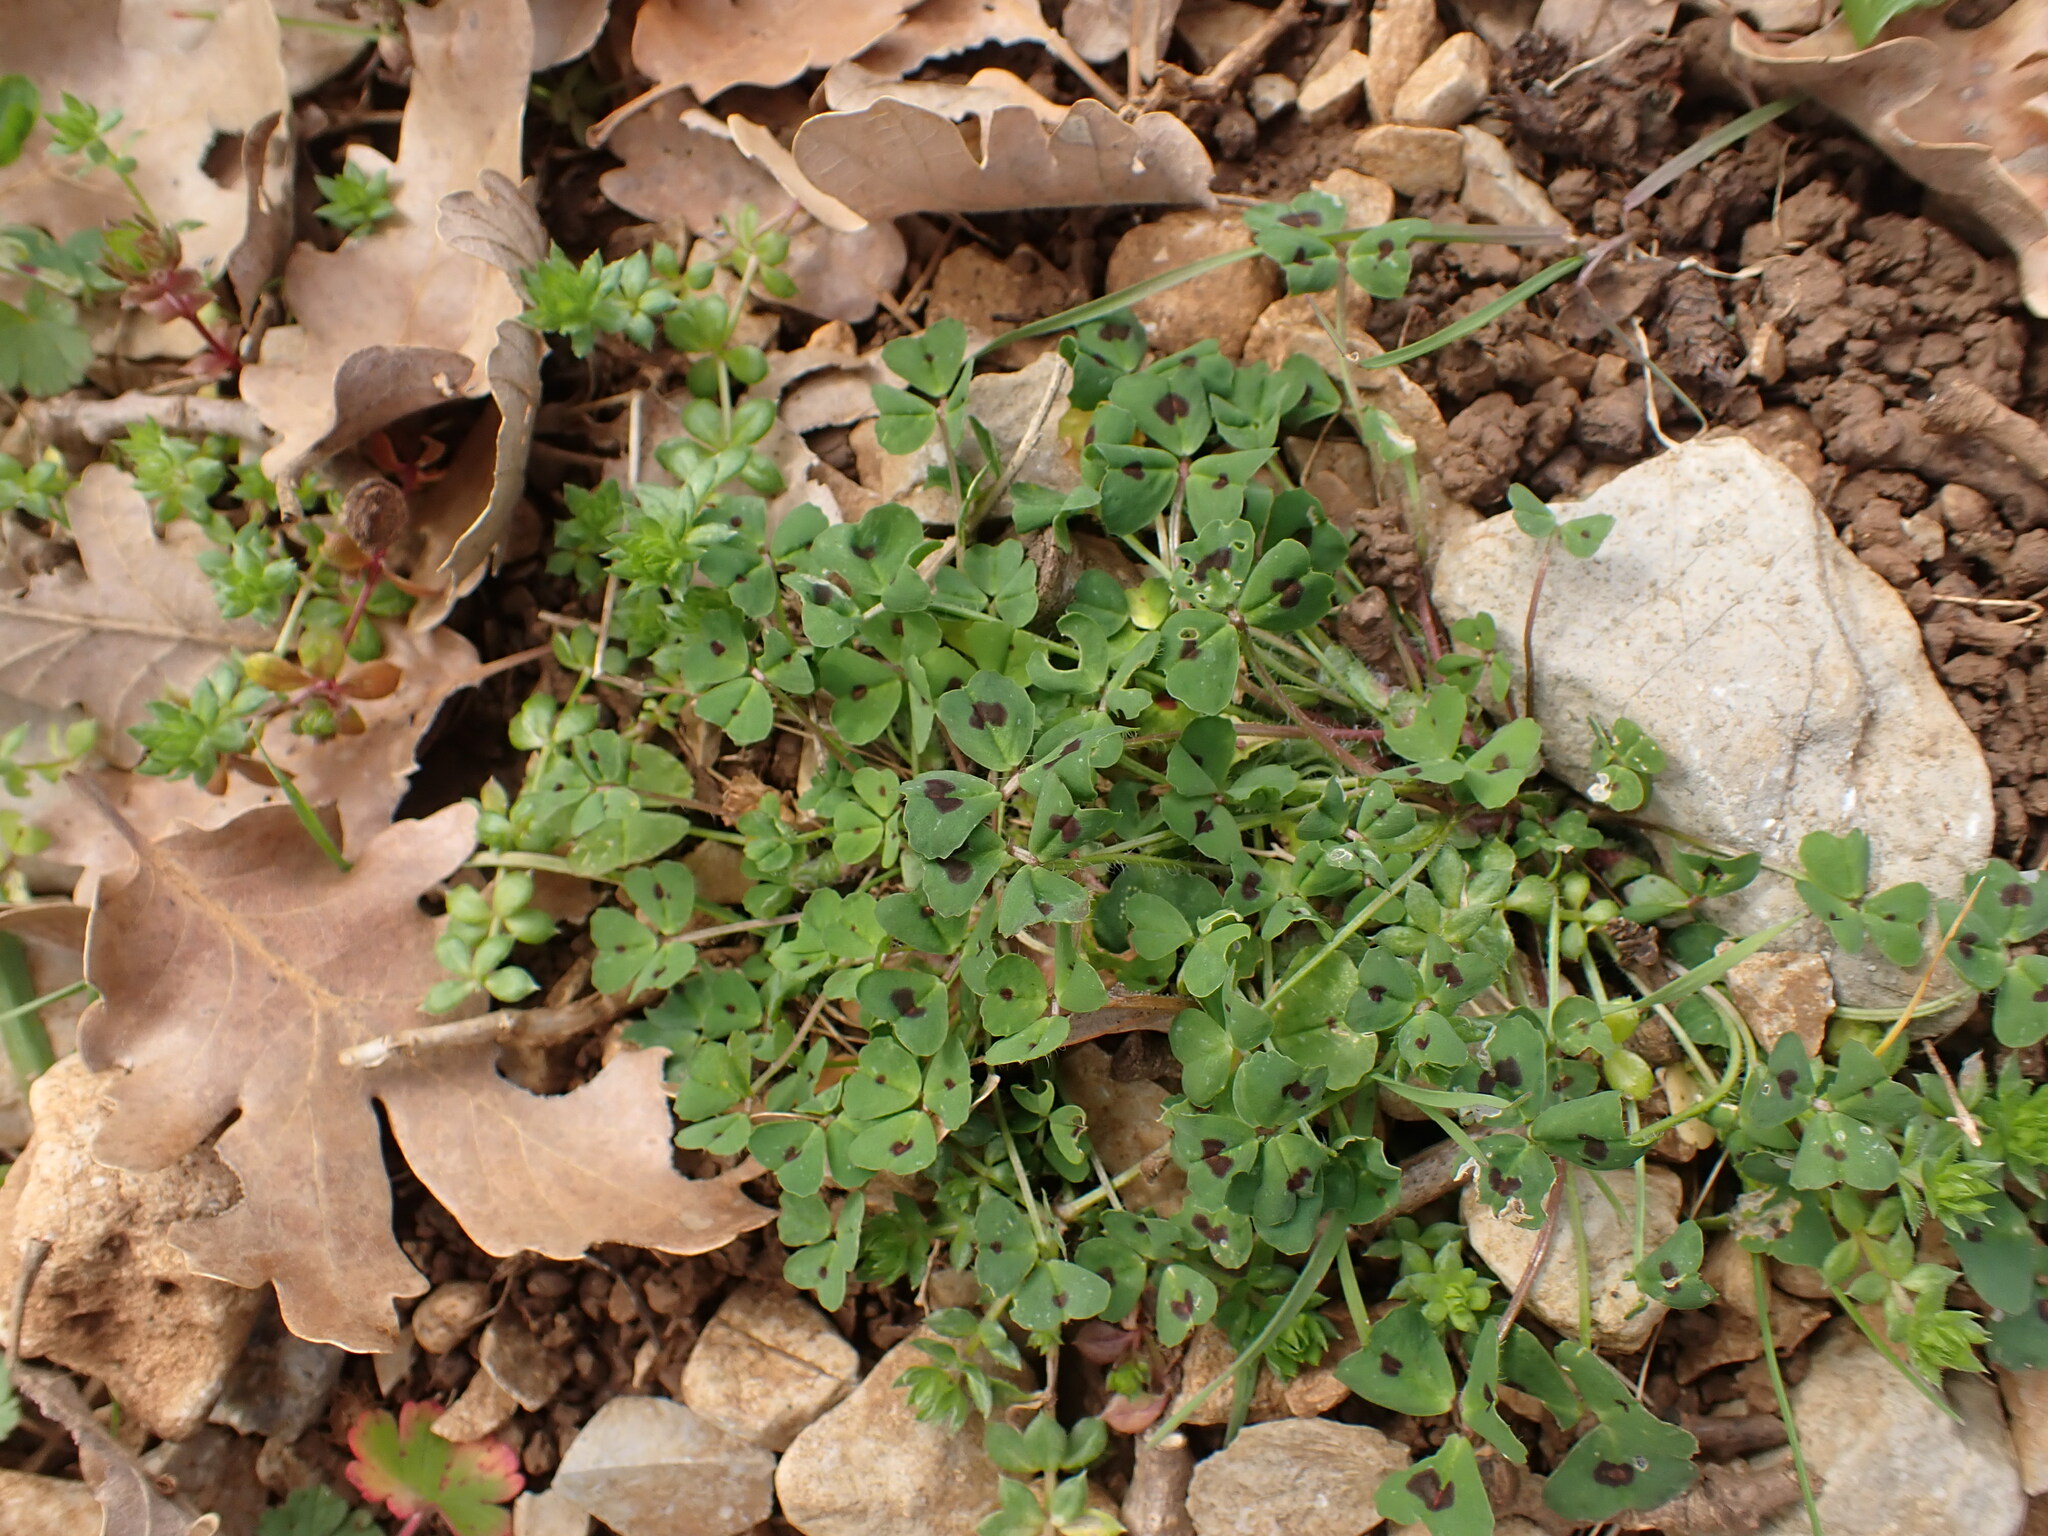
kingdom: Plantae
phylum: Tracheophyta
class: Magnoliopsida
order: Fabales
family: Fabaceae
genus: Medicago
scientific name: Medicago arabica
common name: Spotted medick
